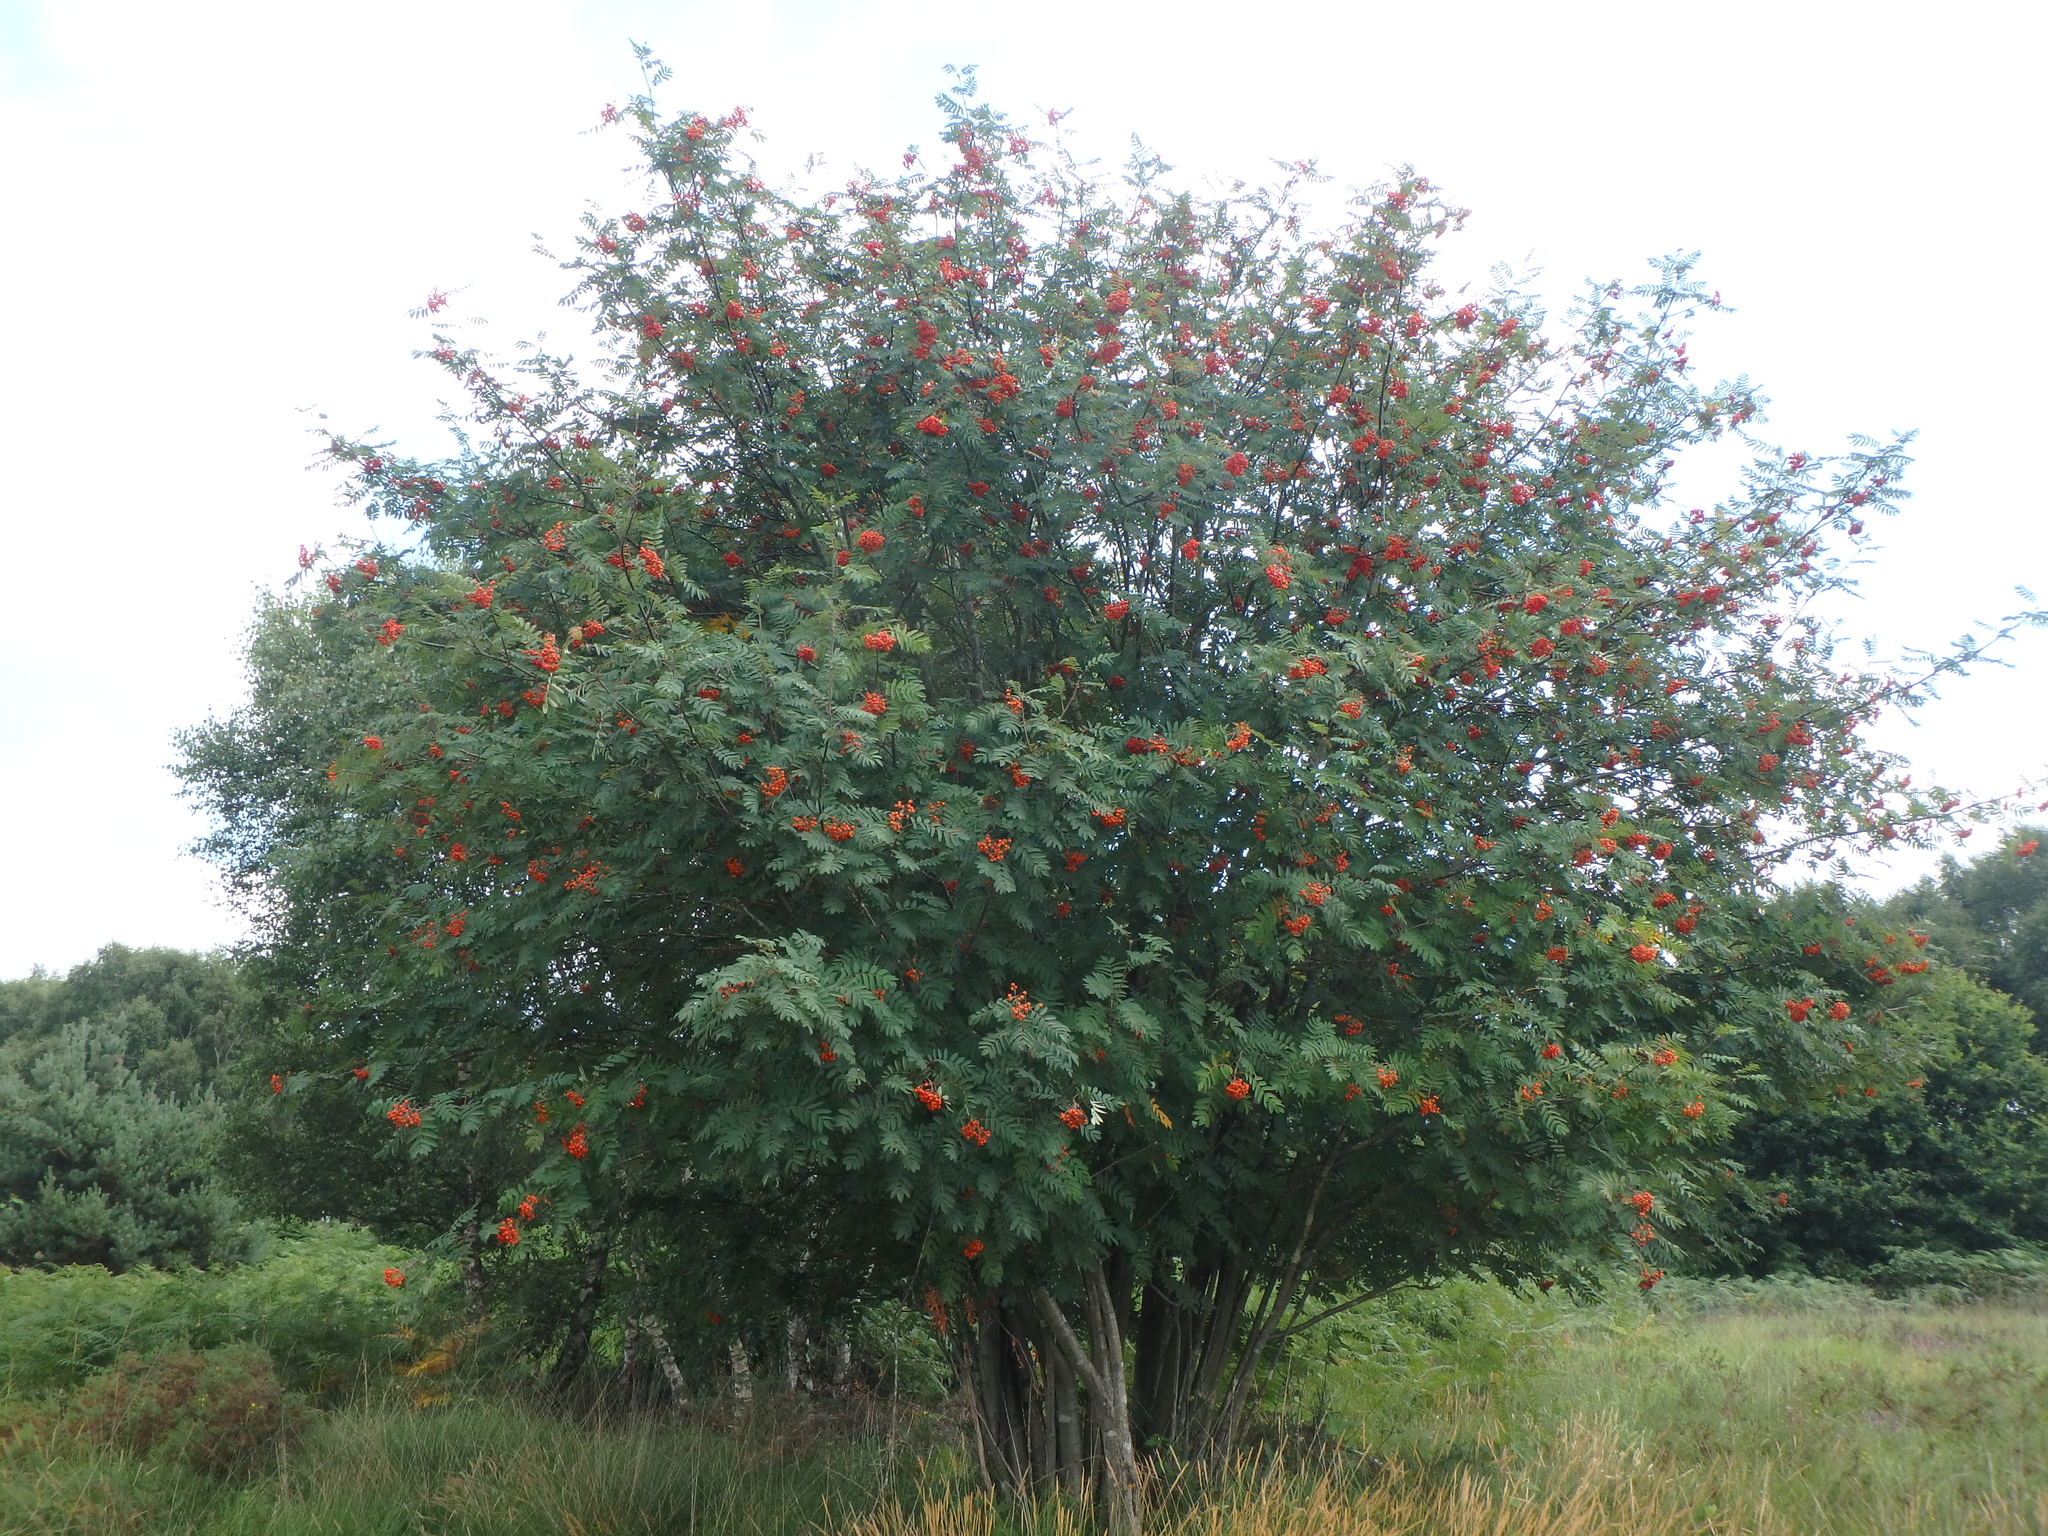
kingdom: Plantae
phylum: Tracheophyta
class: Magnoliopsida
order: Rosales
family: Rosaceae
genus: Sorbus
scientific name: Sorbus aucuparia
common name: Rowan
